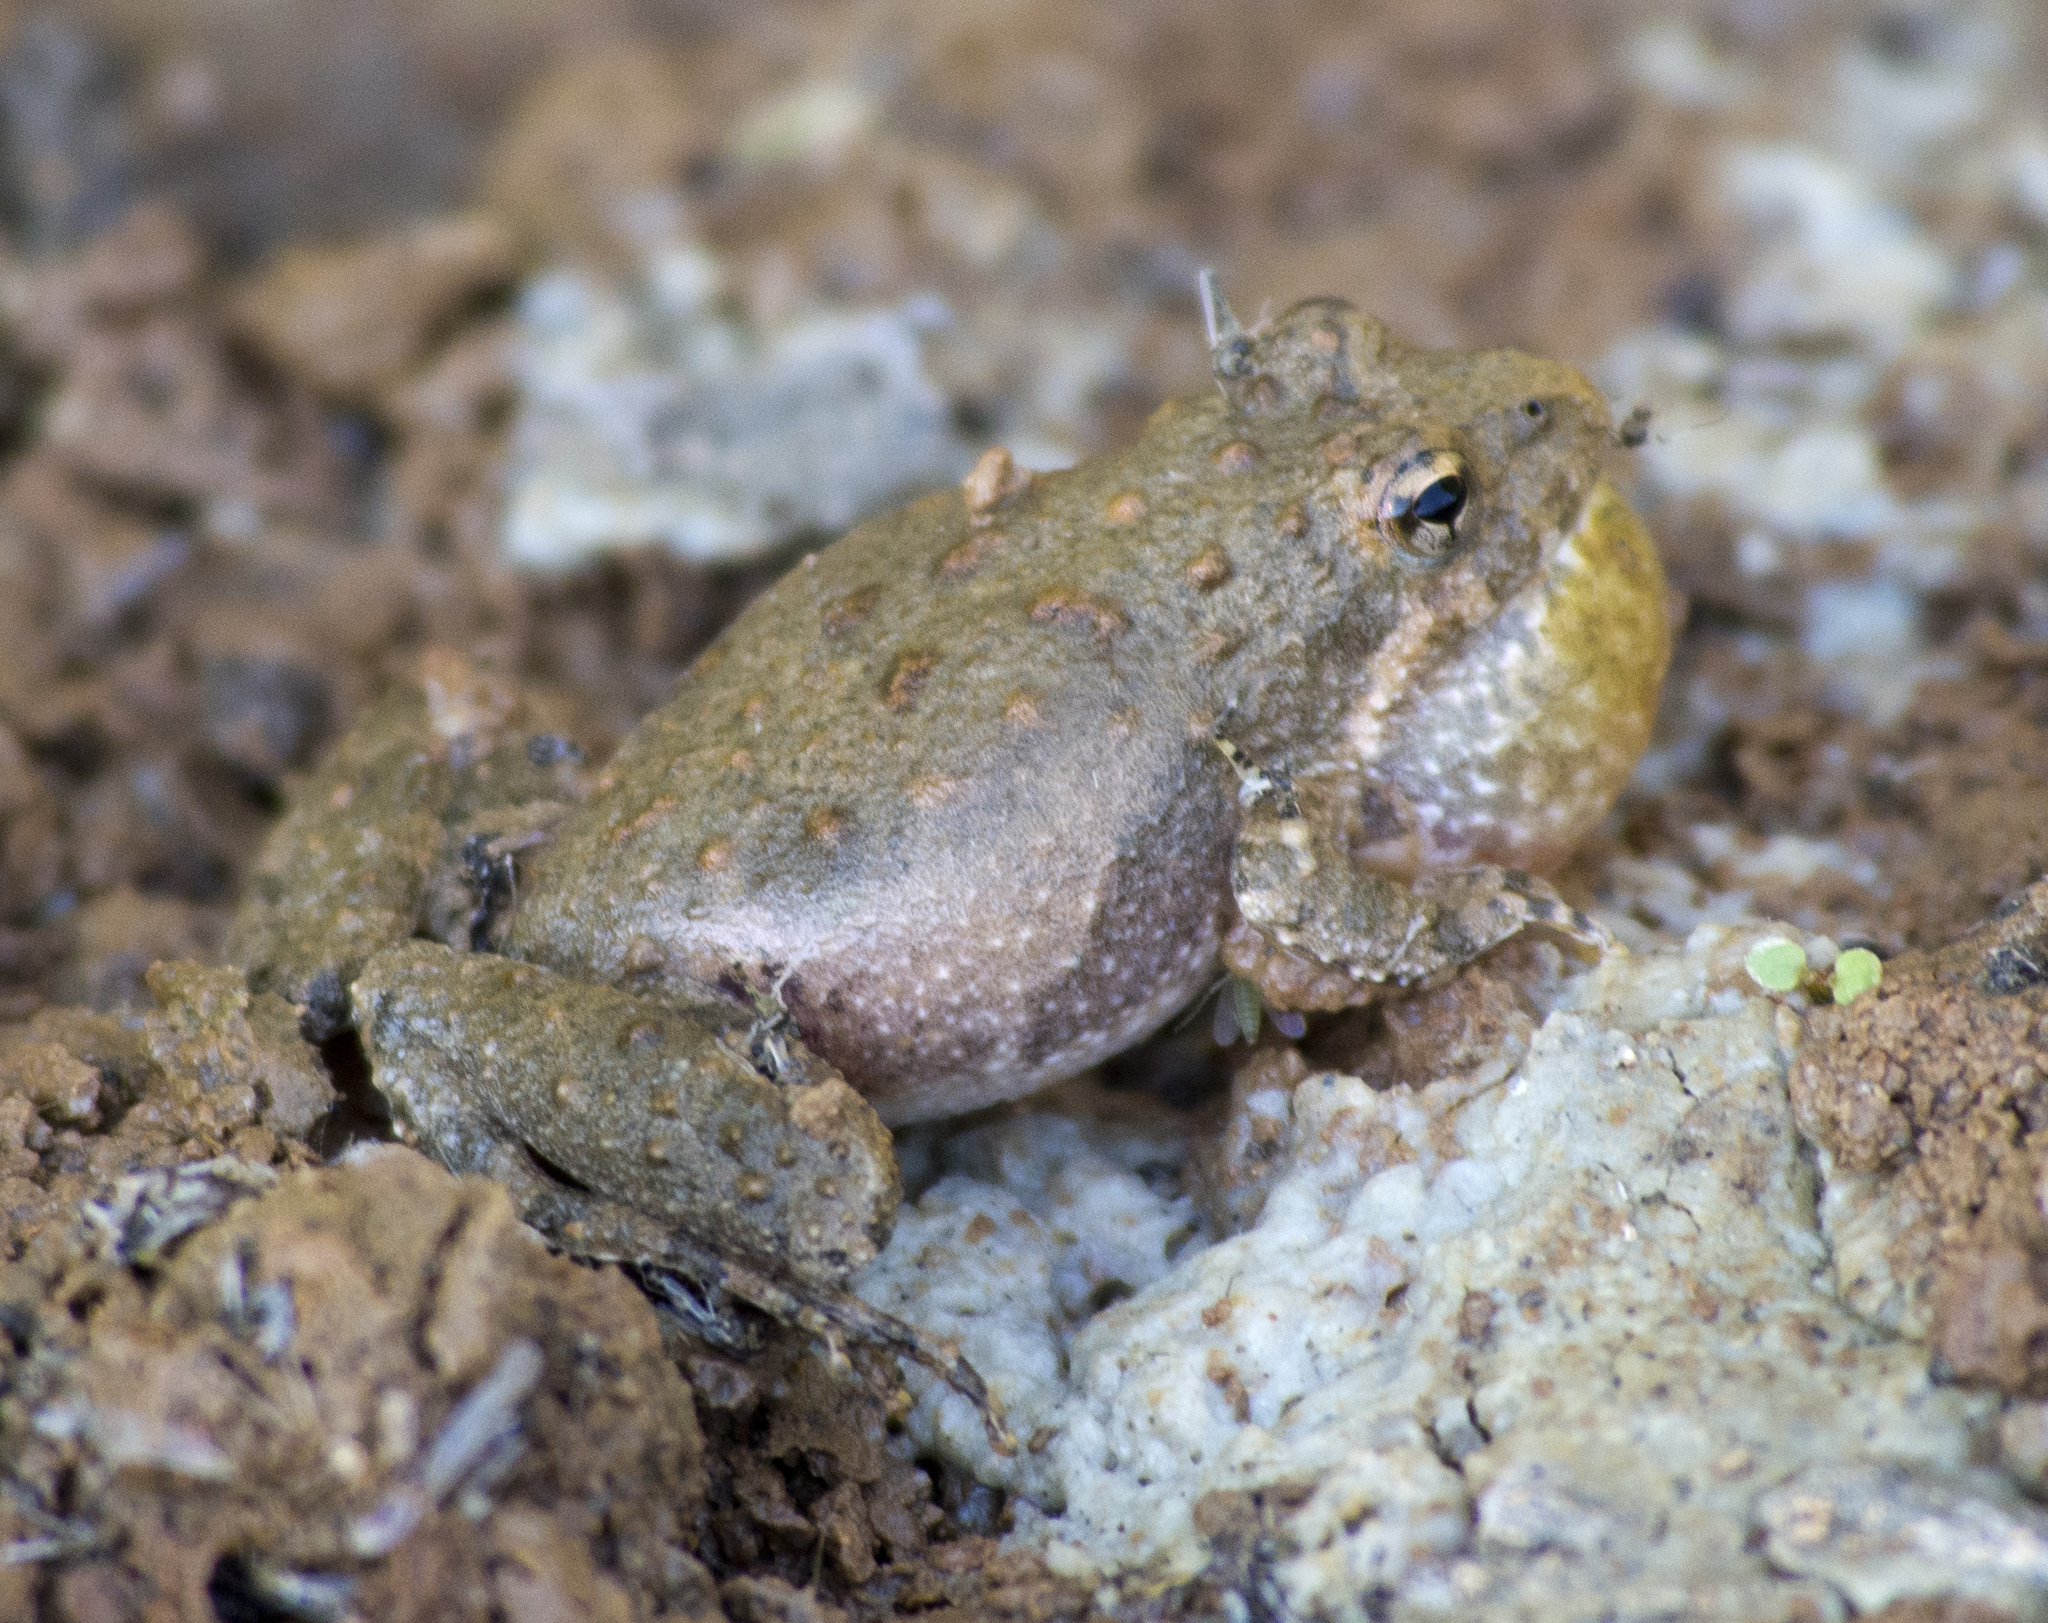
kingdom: Animalia
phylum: Chordata
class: Amphibia
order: Anura
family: Hylidae
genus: Acris
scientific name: Acris blanchardi
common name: Blanchard's cricket frog
